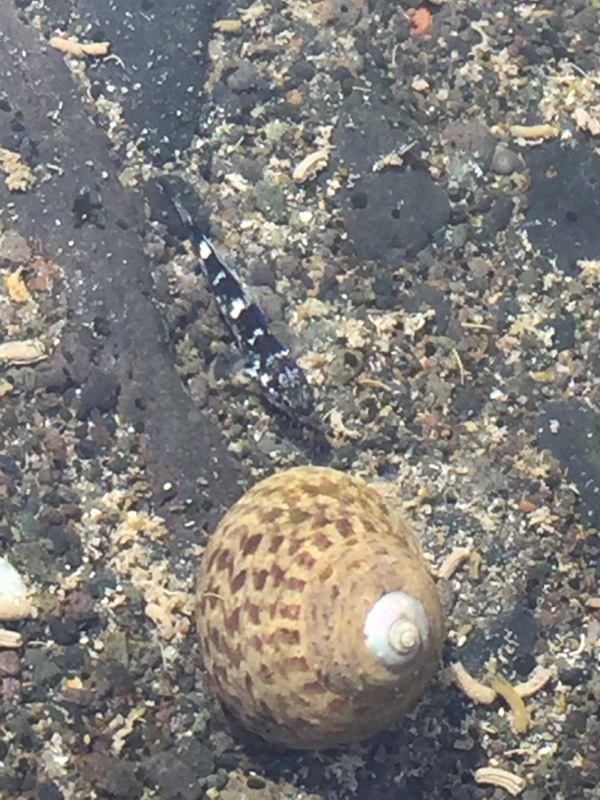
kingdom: Animalia
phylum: Mollusca
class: Gastropoda
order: Trochida
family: Trochidae
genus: Phorcus
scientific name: Phorcus sauciatus
